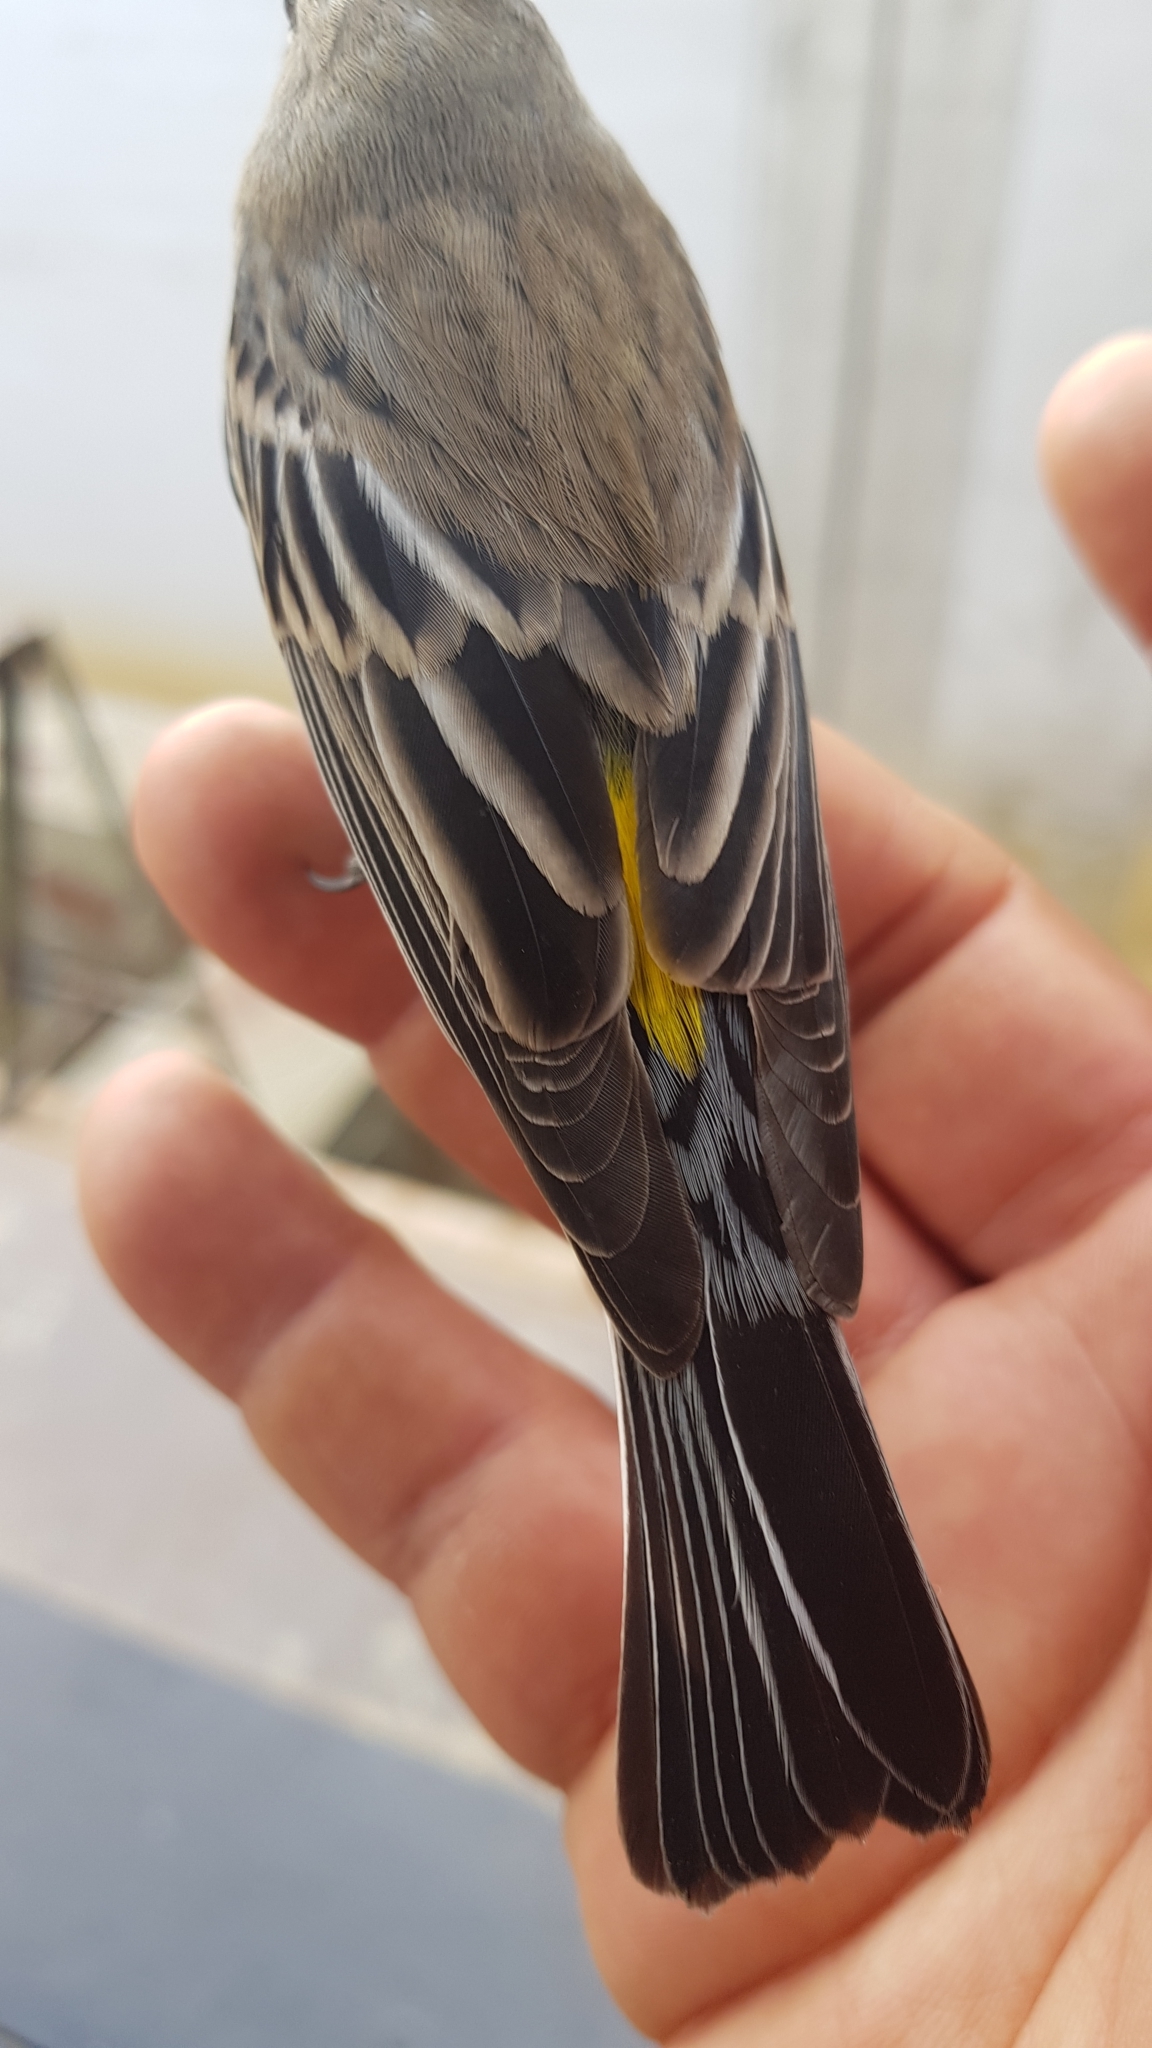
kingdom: Animalia
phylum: Chordata
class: Aves
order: Passeriformes
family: Parulidae
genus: Setophaga
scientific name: Setophaga coronata
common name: Myrtle warbler
